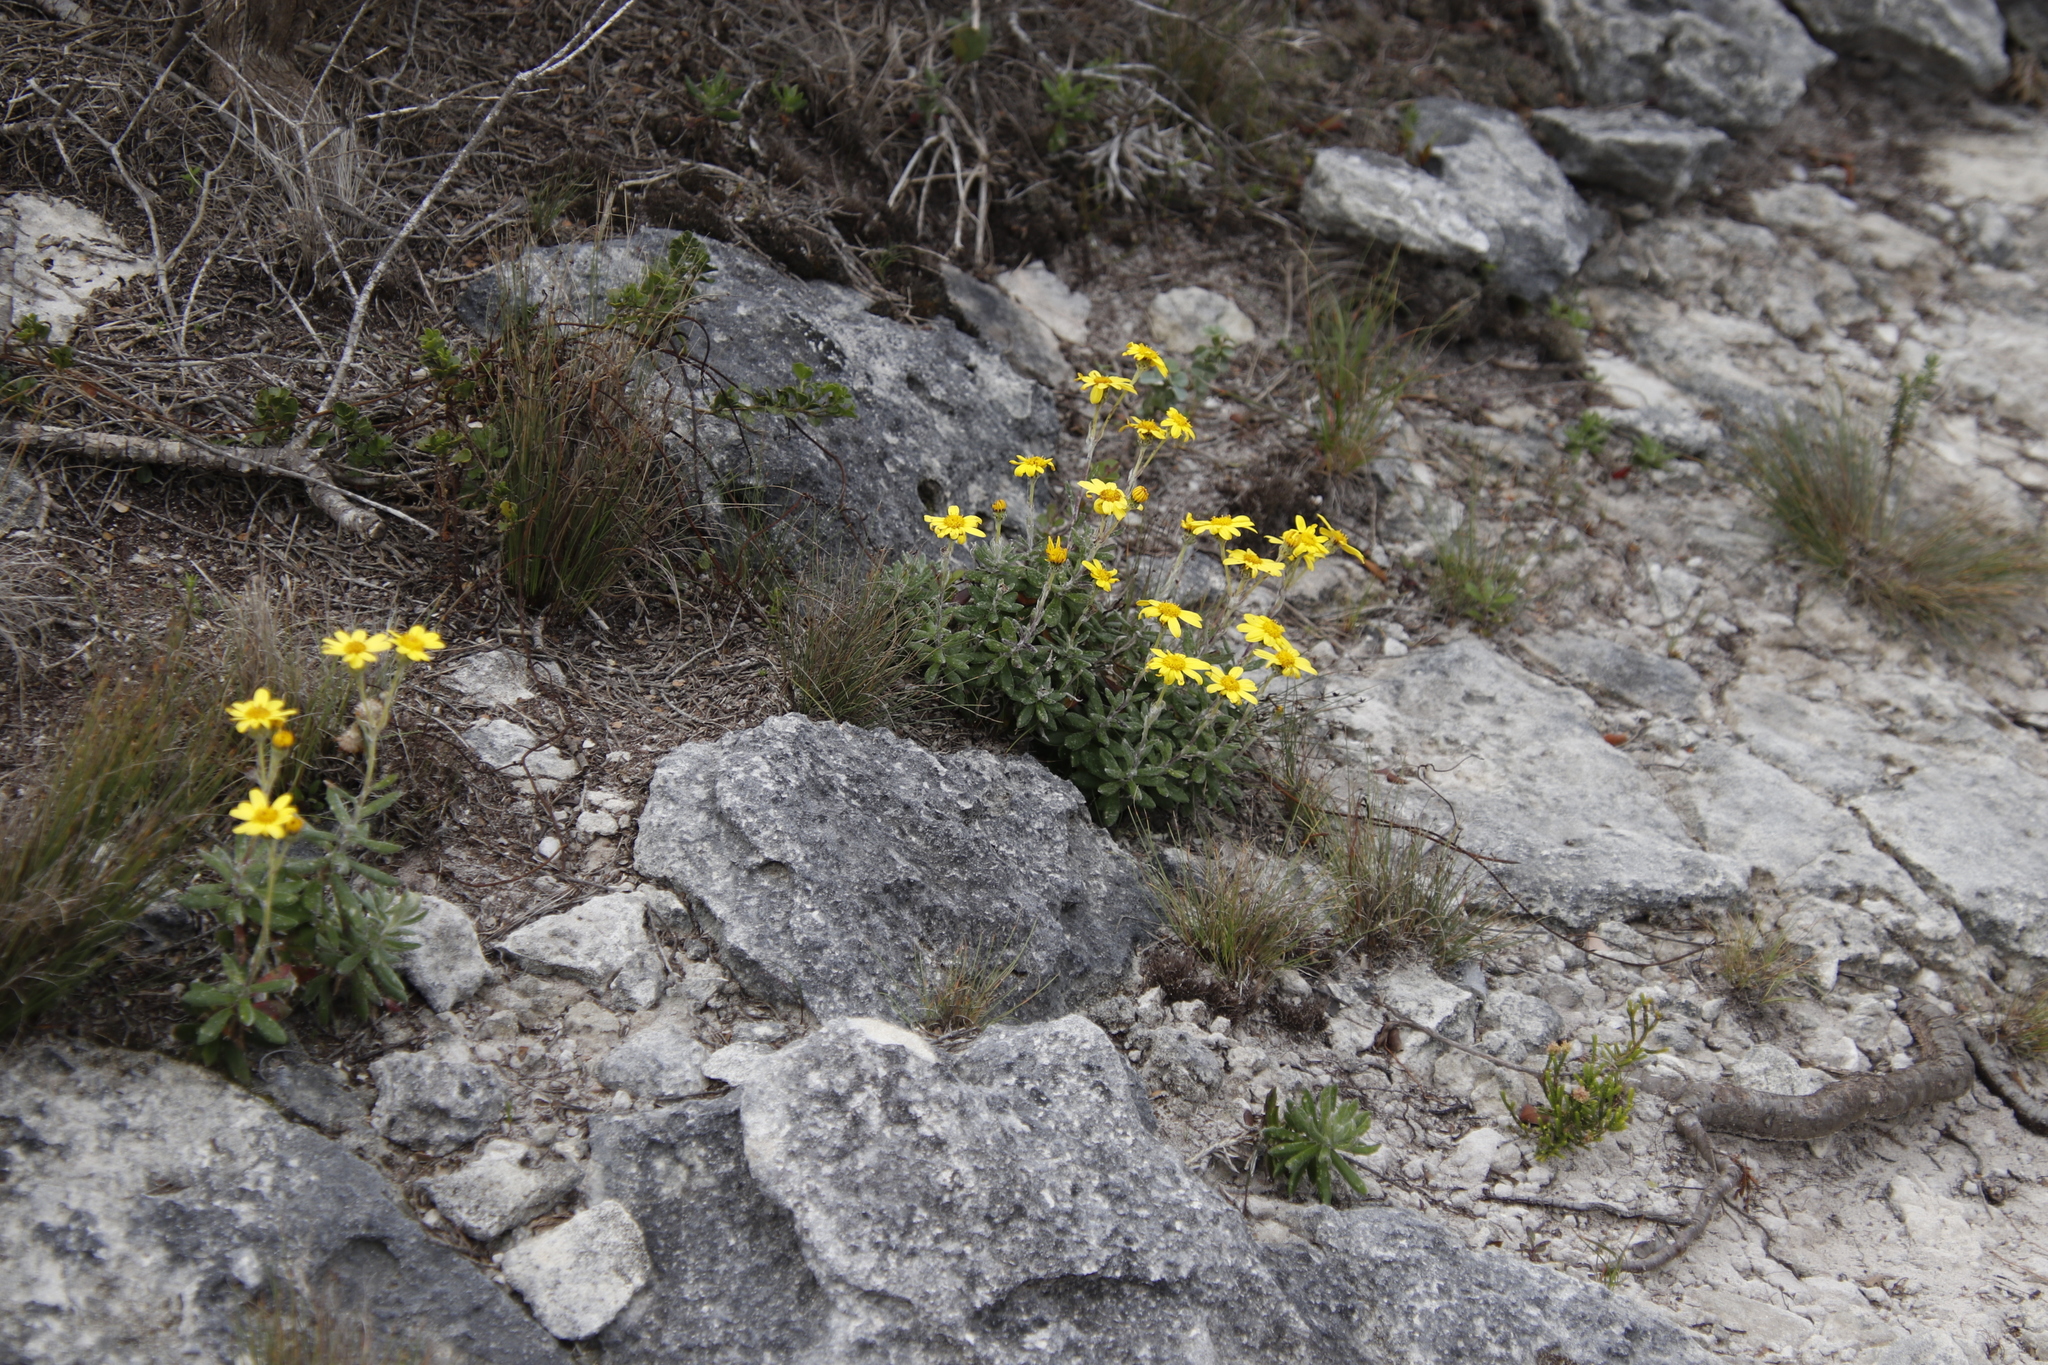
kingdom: Plantae
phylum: Tracheophyta
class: Magnoliopsida
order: Asterales
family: Asteraceae
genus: Senecio
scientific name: Senecio arniciflorus
